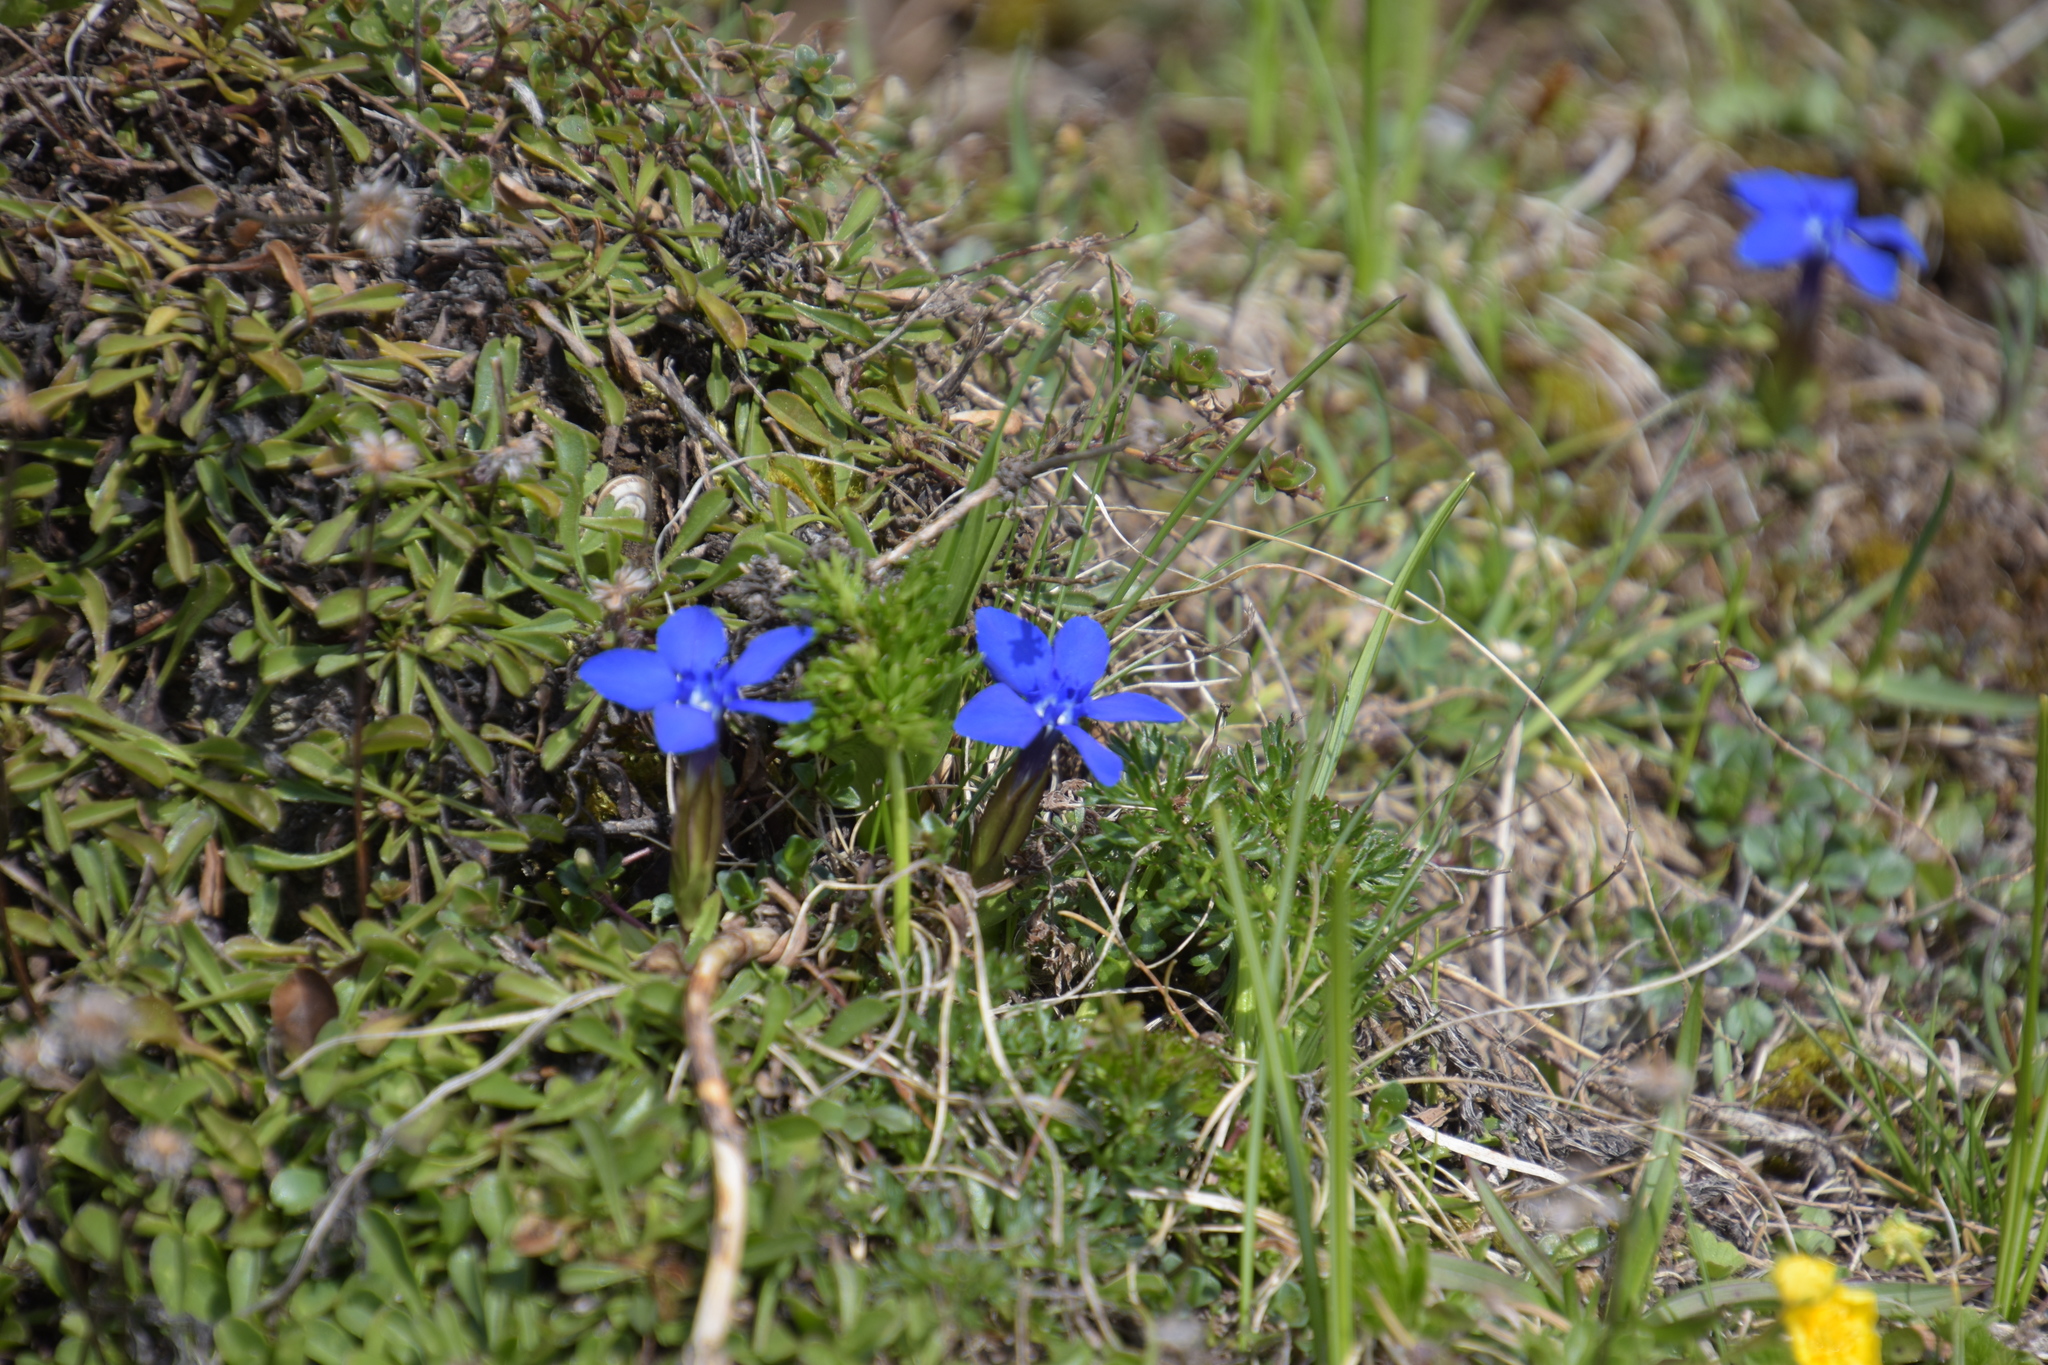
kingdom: Plantae
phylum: Tracheophyta
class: Magnoliopsida
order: Gentianales
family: Gentianaceae
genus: Gentiana
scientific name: Gentiana verna
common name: Spring gentian
